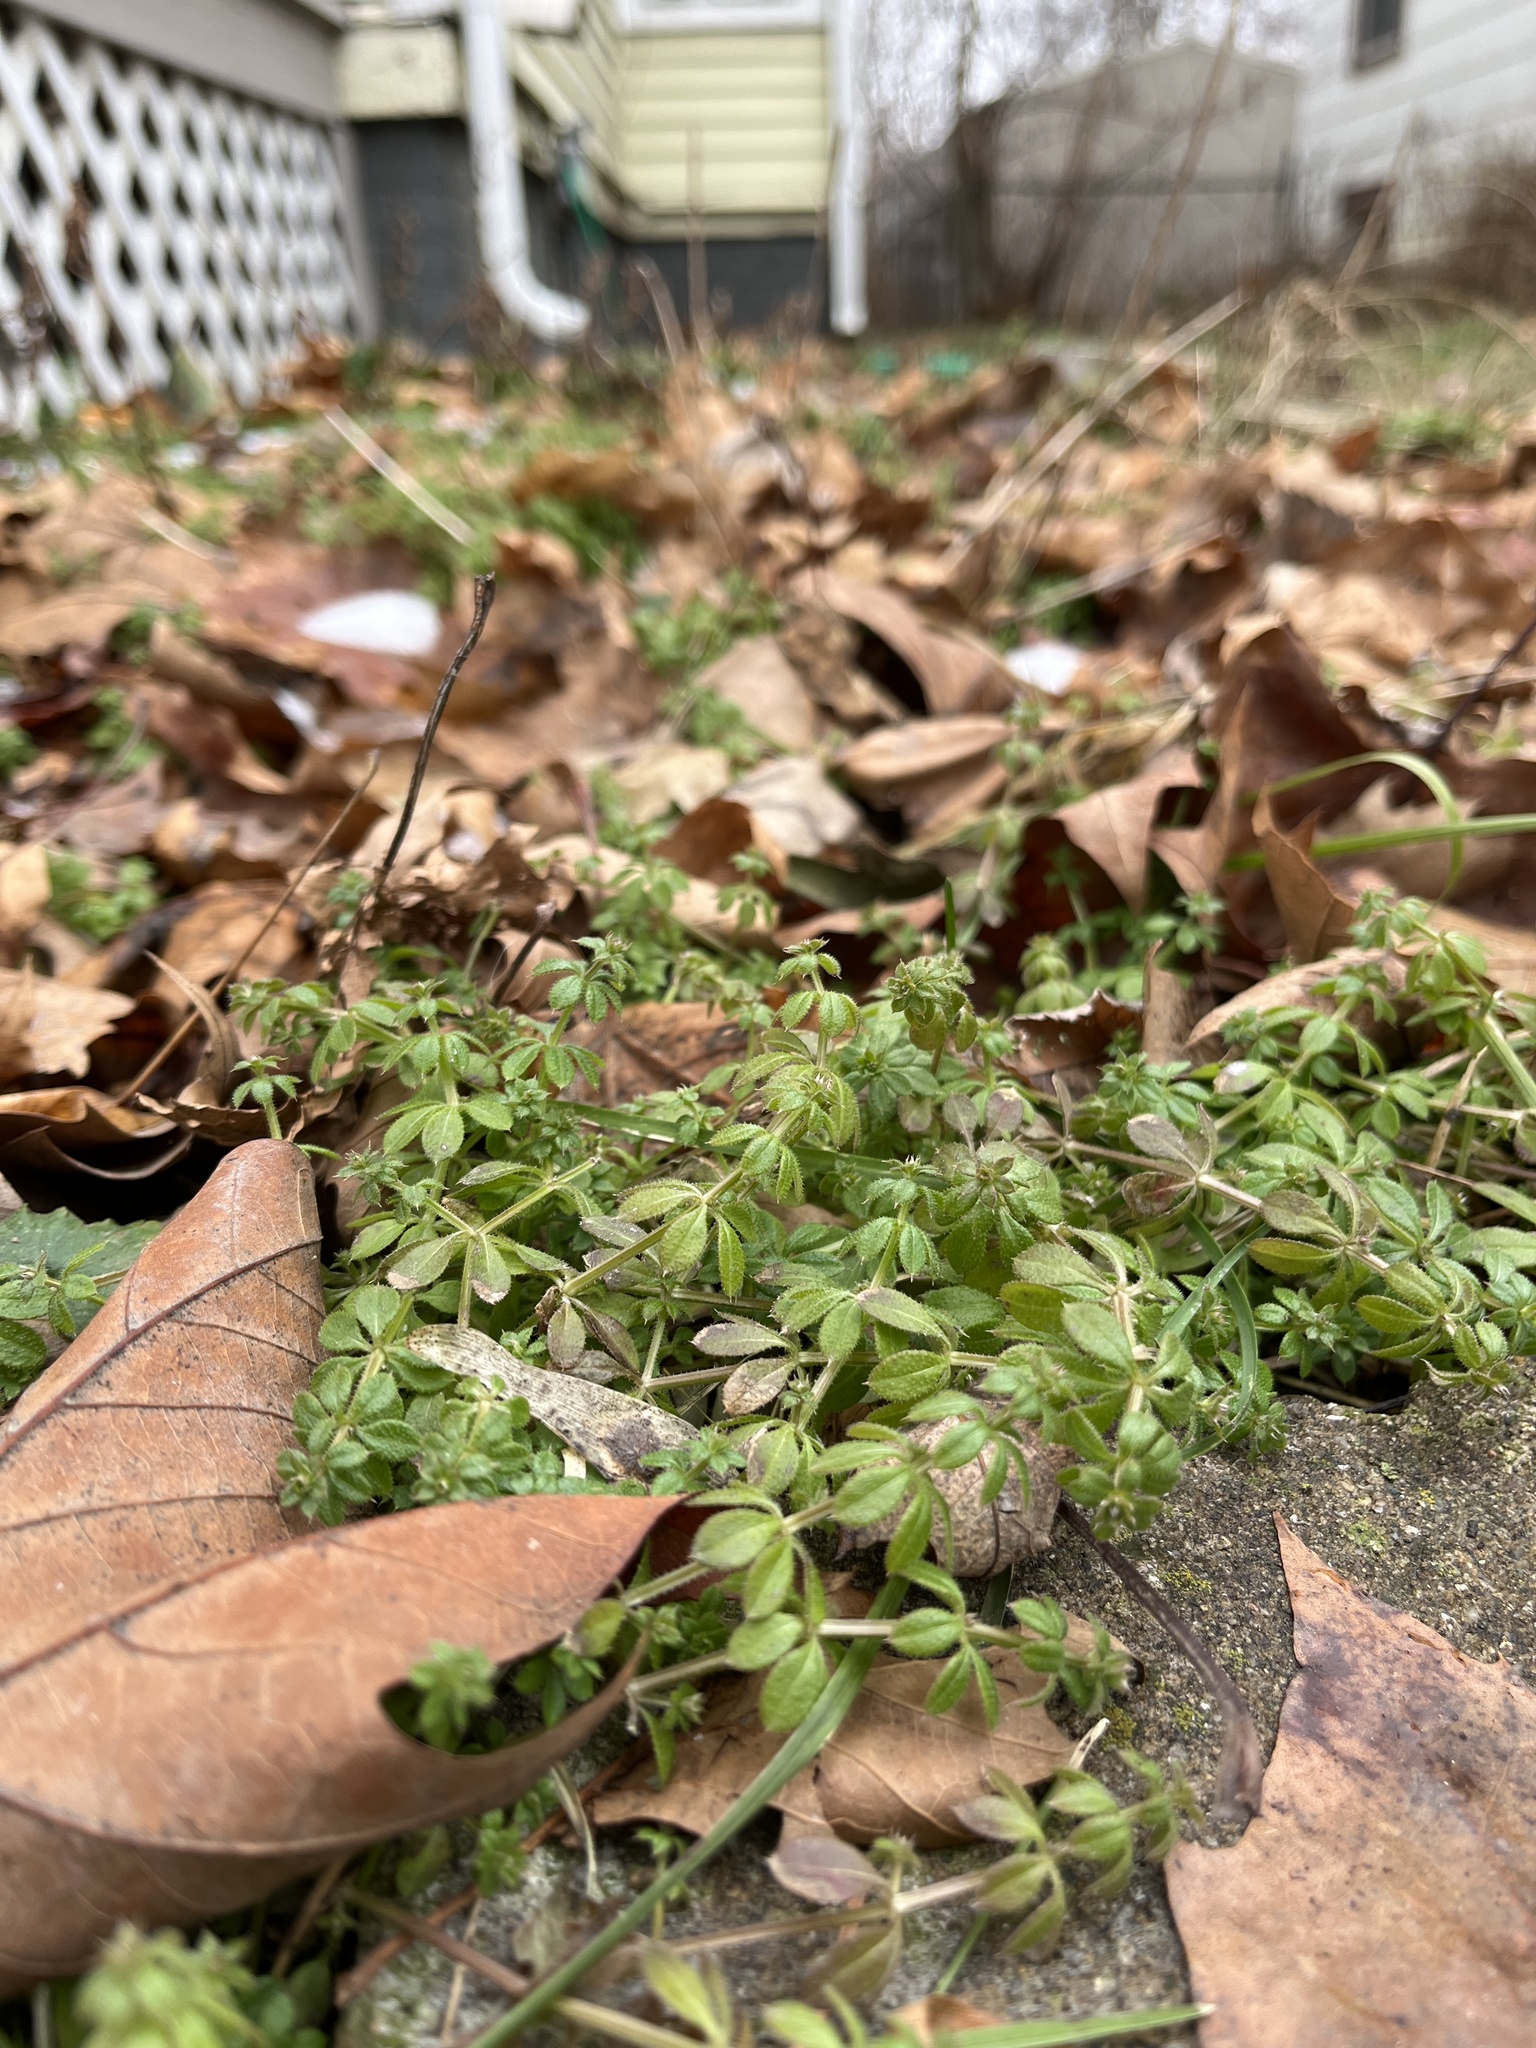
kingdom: Plantae
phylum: Tracheophyta
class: Magnoliopsida
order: Gentianales
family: Rubiaceae
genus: Galium
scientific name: Galium aparine
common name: Cleavers
